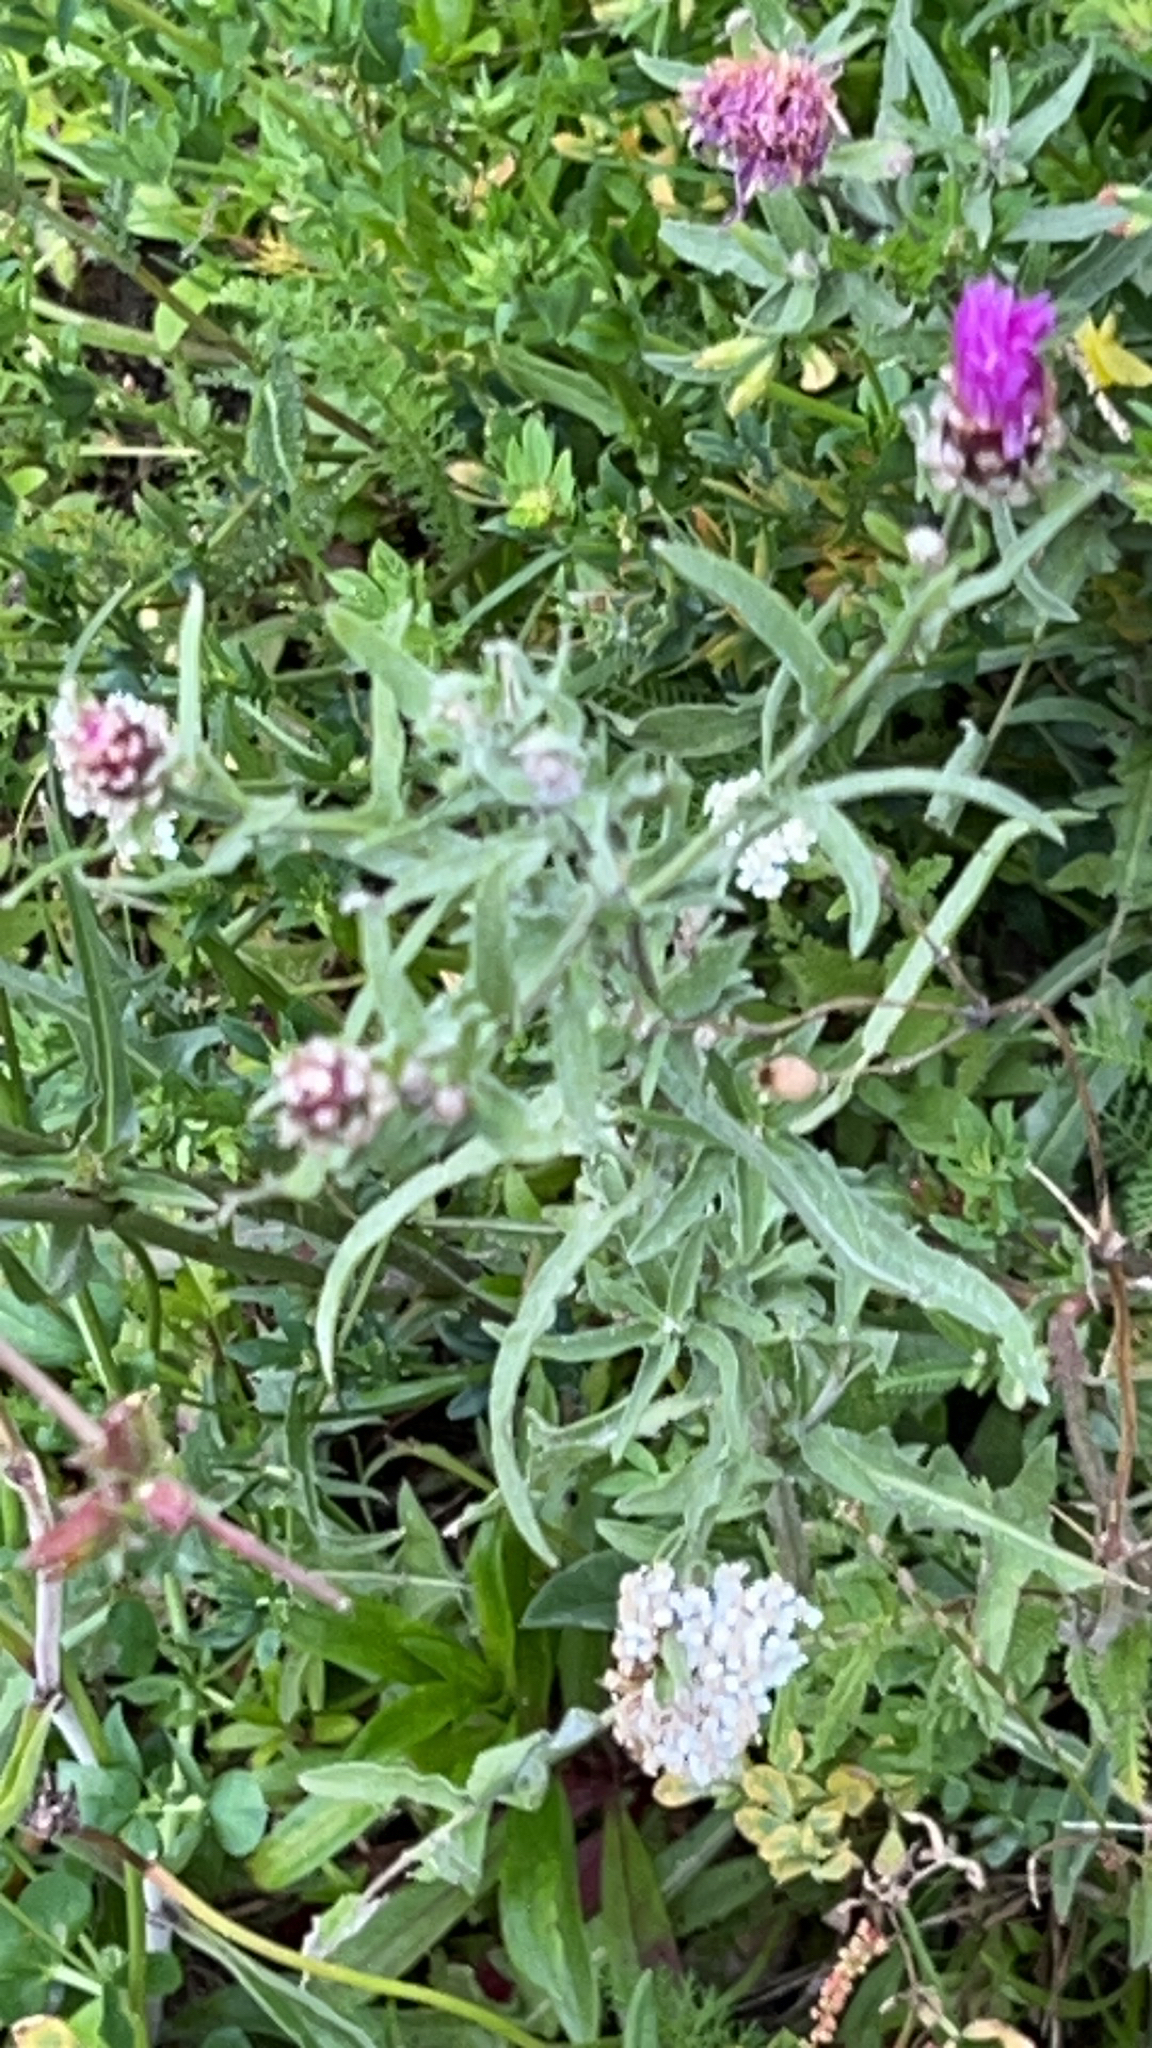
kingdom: Plantae
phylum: Tracheophyta
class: Magnoliopsida
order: Asterales
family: Asteraceae
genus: Centaurea
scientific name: Centaurea jacea
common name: Brown knapweed
